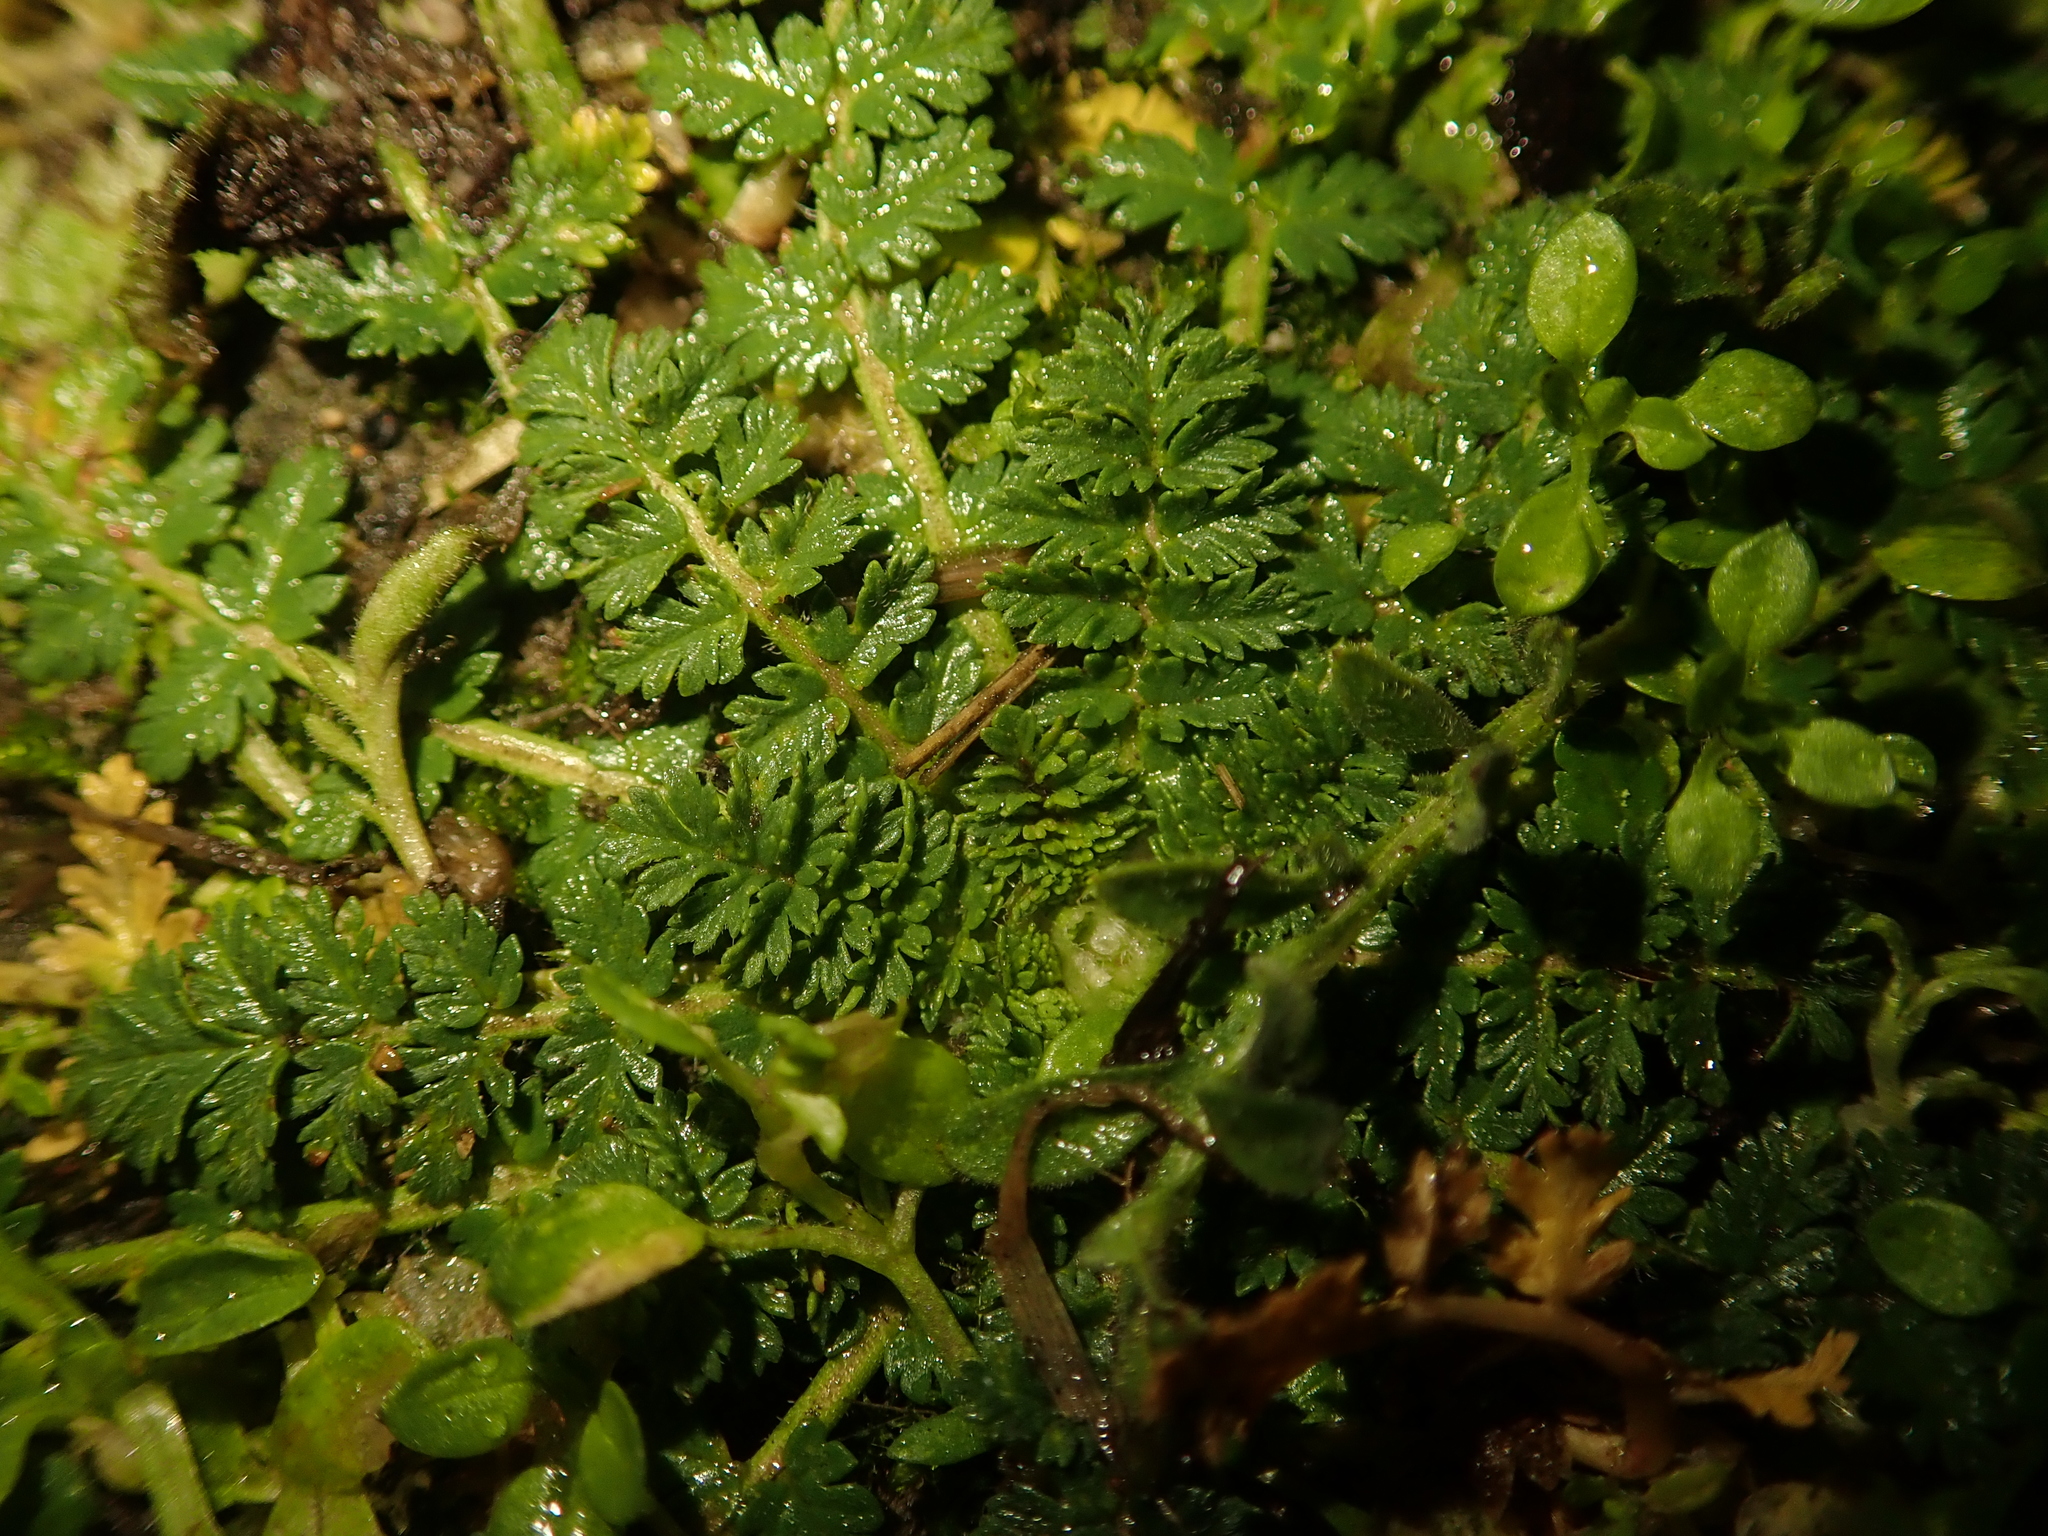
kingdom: Plantae
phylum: Tracheophyta
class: Magnoliopsida
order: Geraniales
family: Geraniaceae
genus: Erodium
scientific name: Erodium cicutarium
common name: Common stork's-bill
